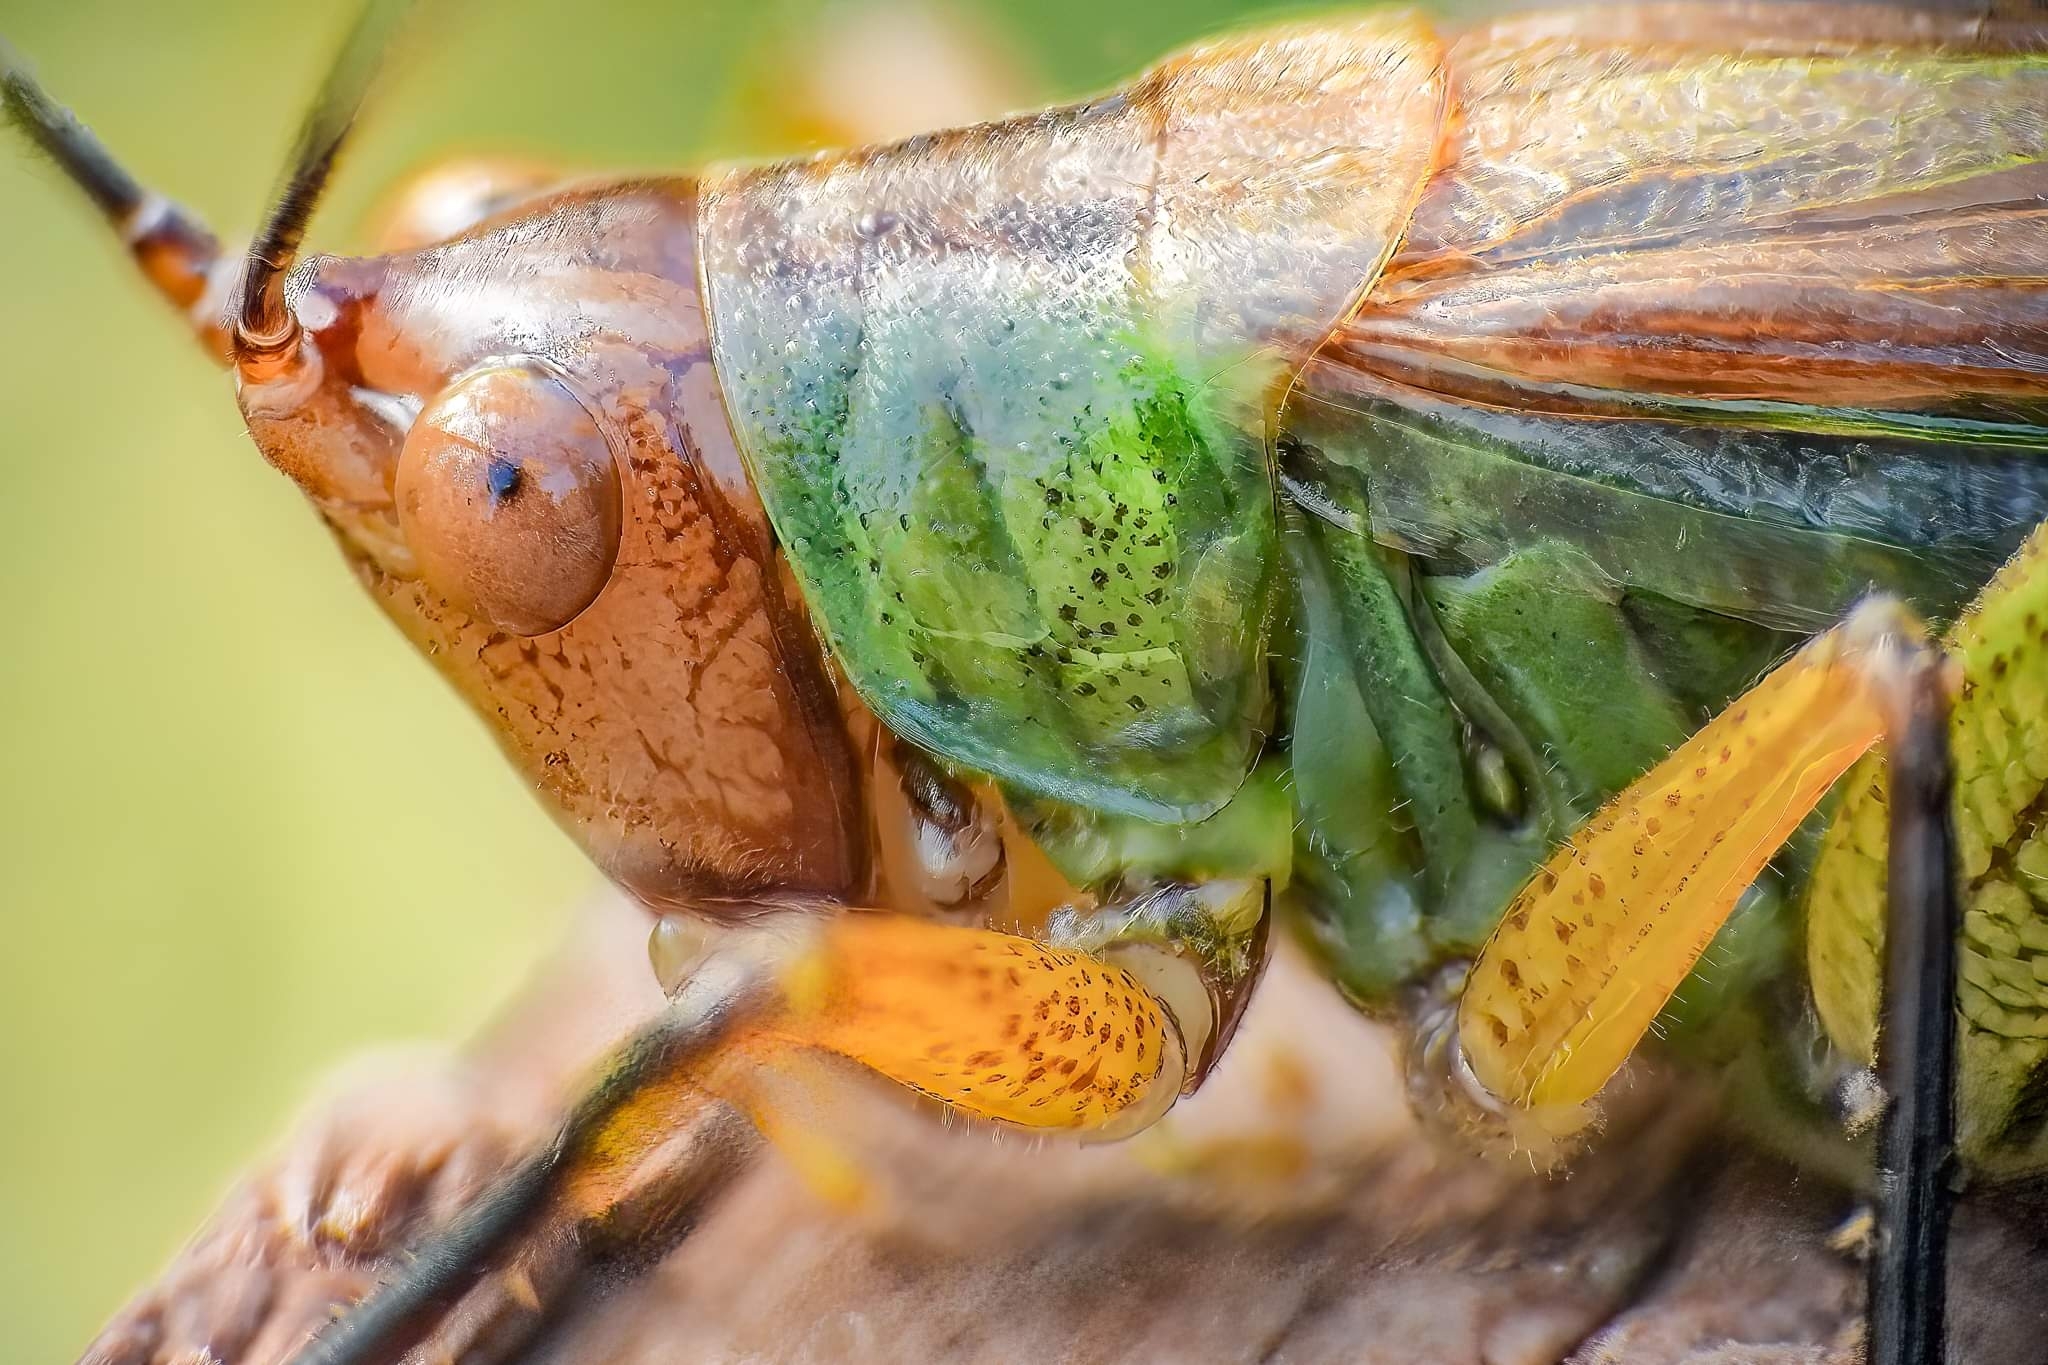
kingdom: Animalia
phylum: Arthropoda
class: Insecta
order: Orthoptera
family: Tettigoniidae
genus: Orchelimum
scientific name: Orchelimum nigripes
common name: Black-legged meadow katydid
